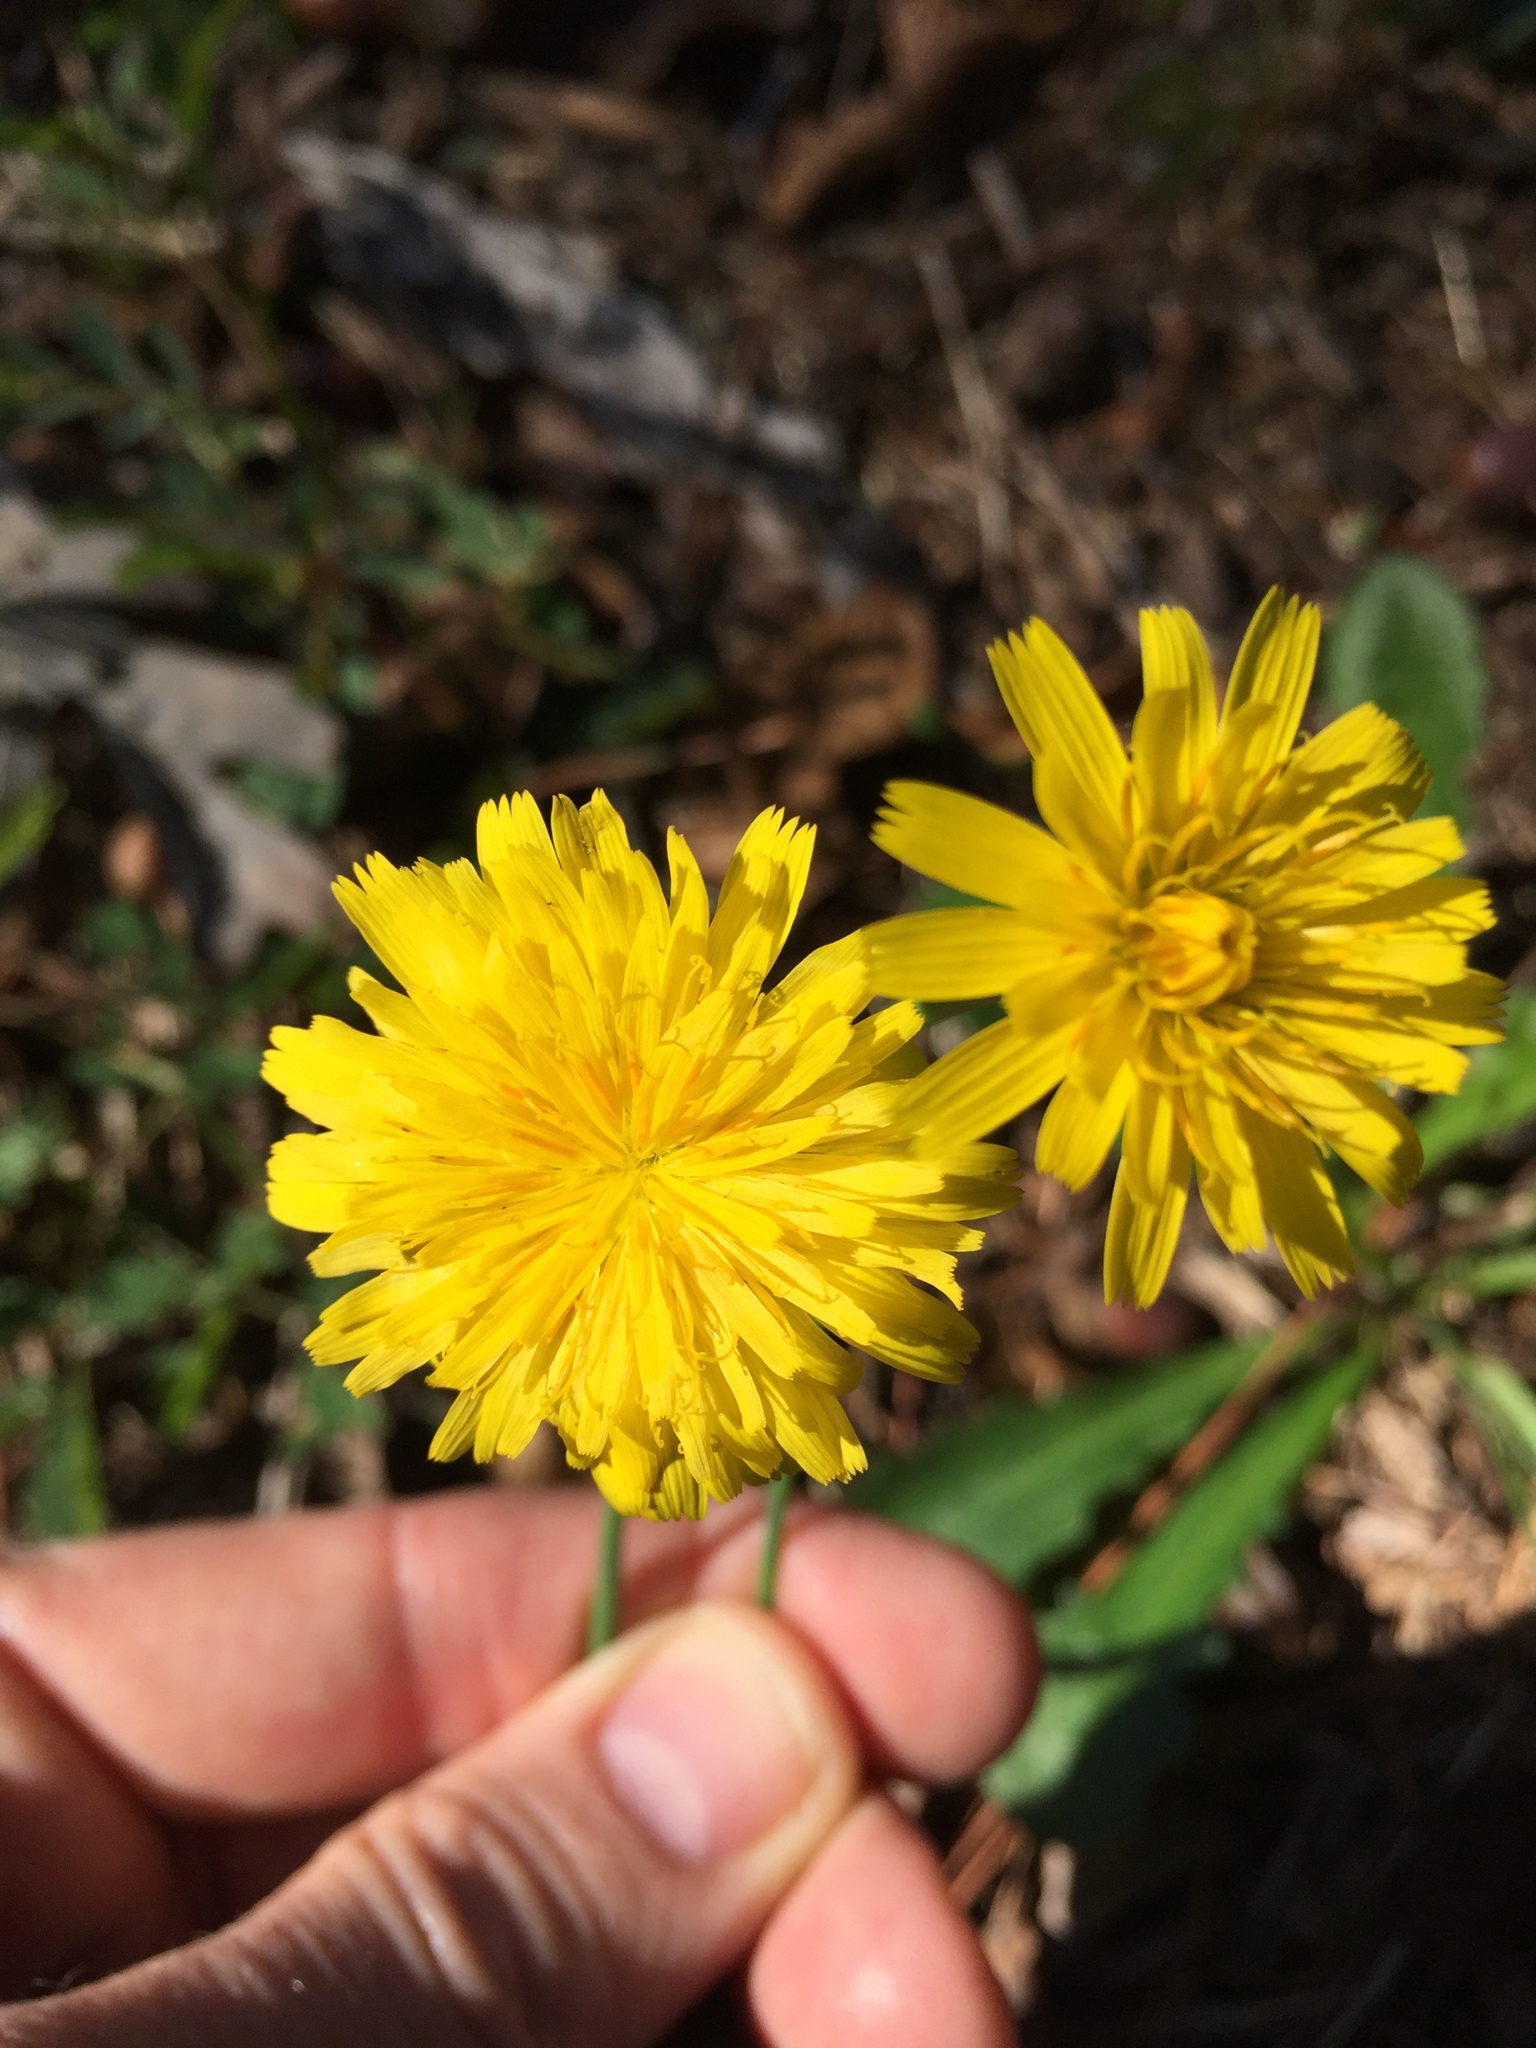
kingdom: Plantae
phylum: Tracheophyta
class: Magnoliopsida
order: Asterales
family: Asteraceae
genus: Hypochaeris
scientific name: Hypochaeris radicata
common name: Flatweed
